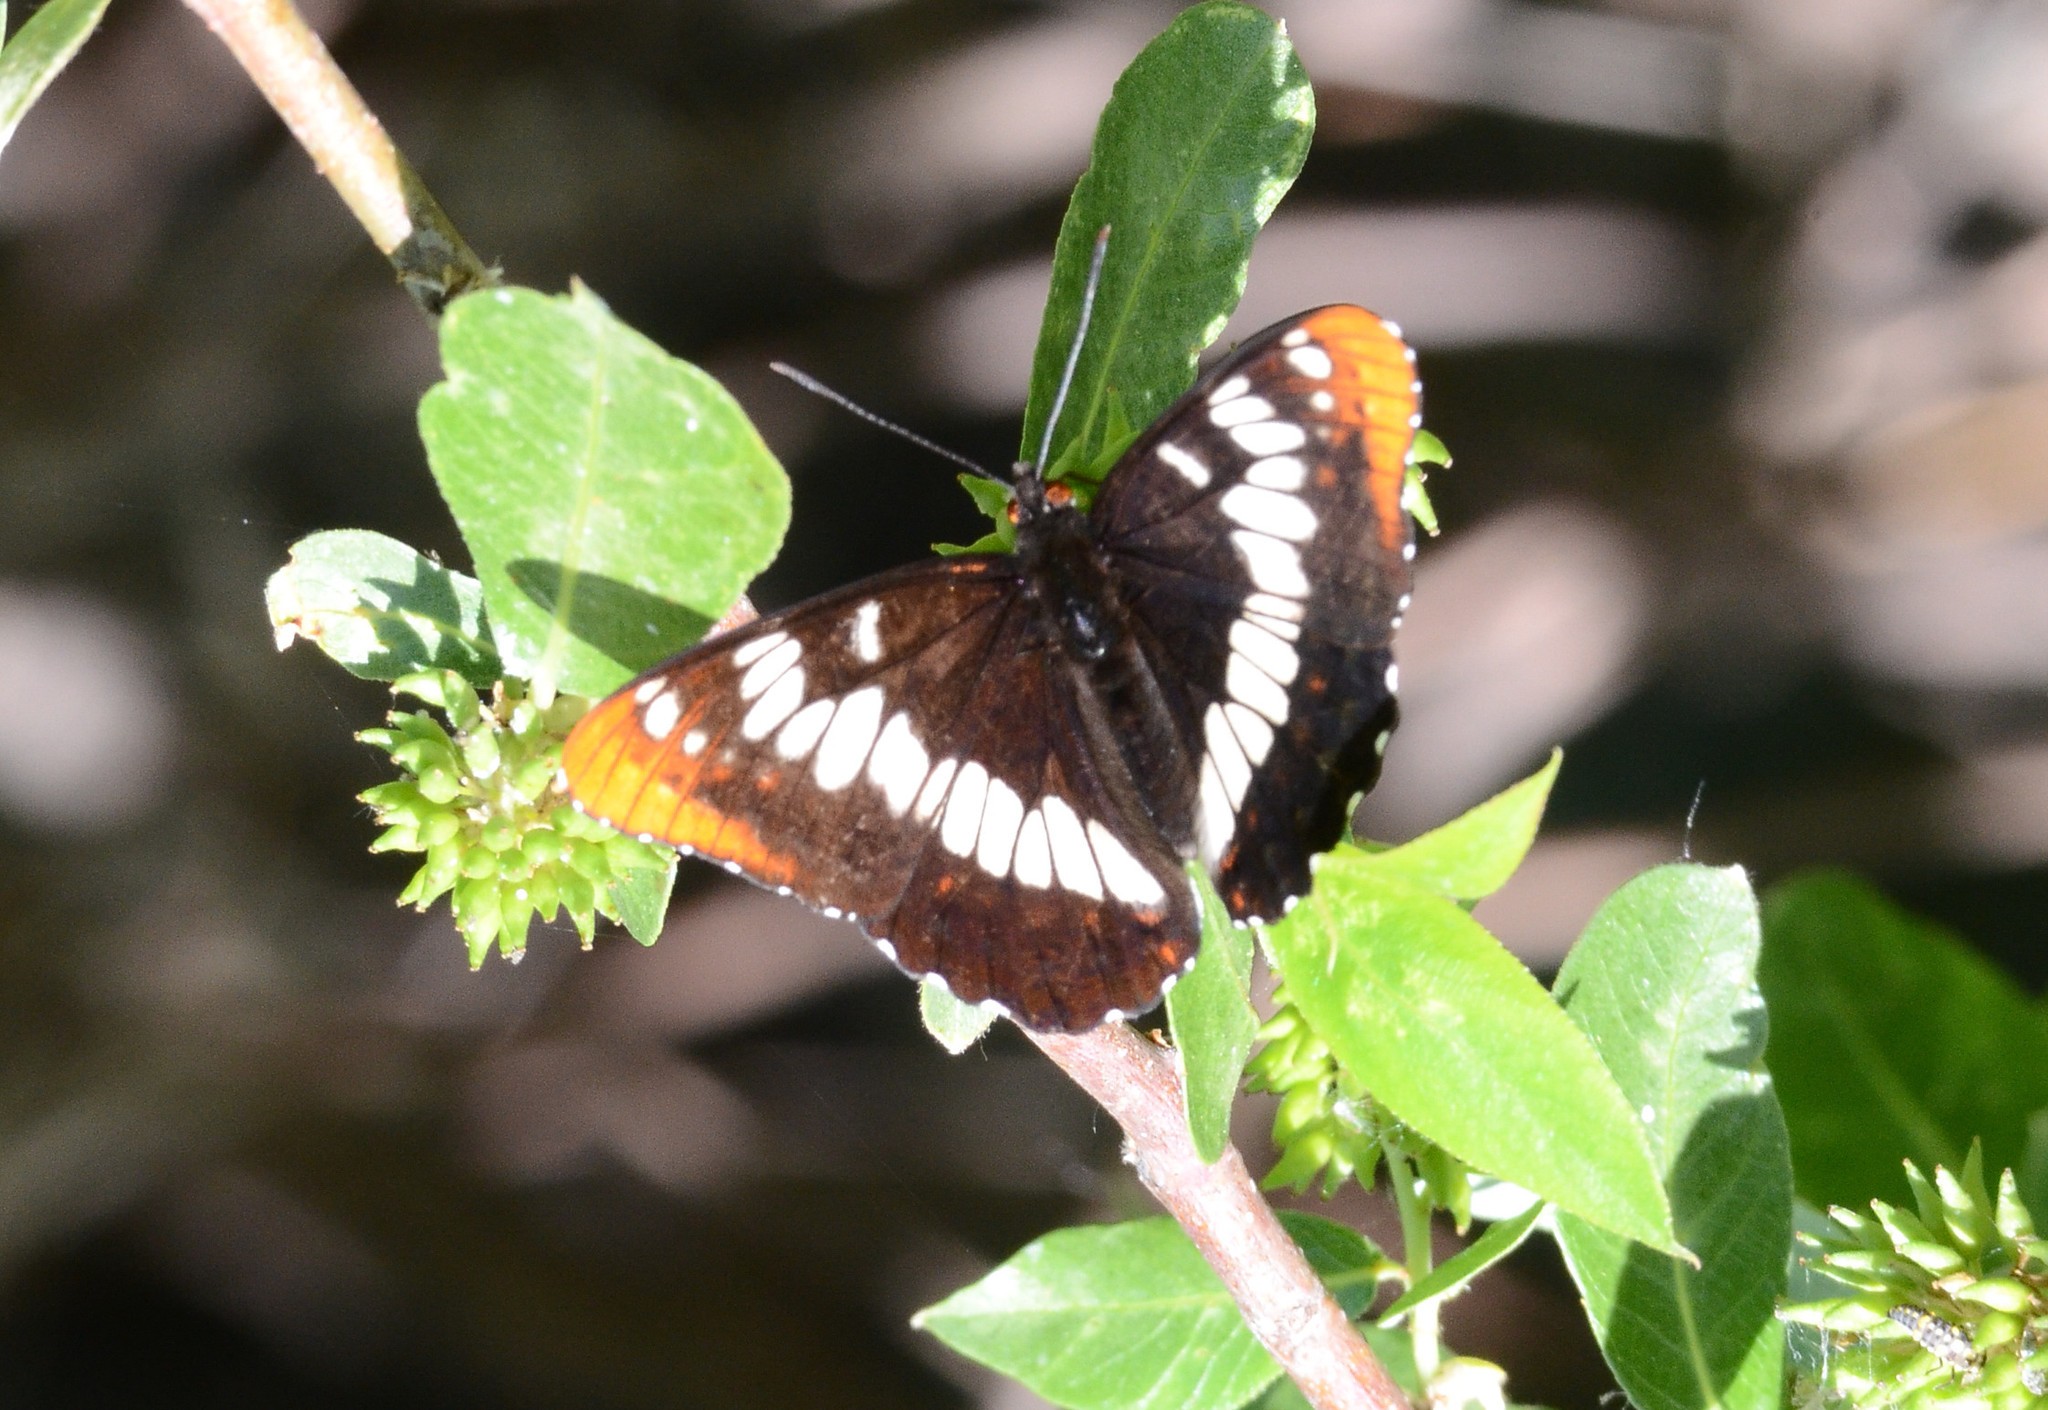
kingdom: Animalia
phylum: Arthropoda
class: Insecta
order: Lepidoptera
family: Nymphalidae
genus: Limenitis
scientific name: Limenitis lorquini
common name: Lorquin's admiral
